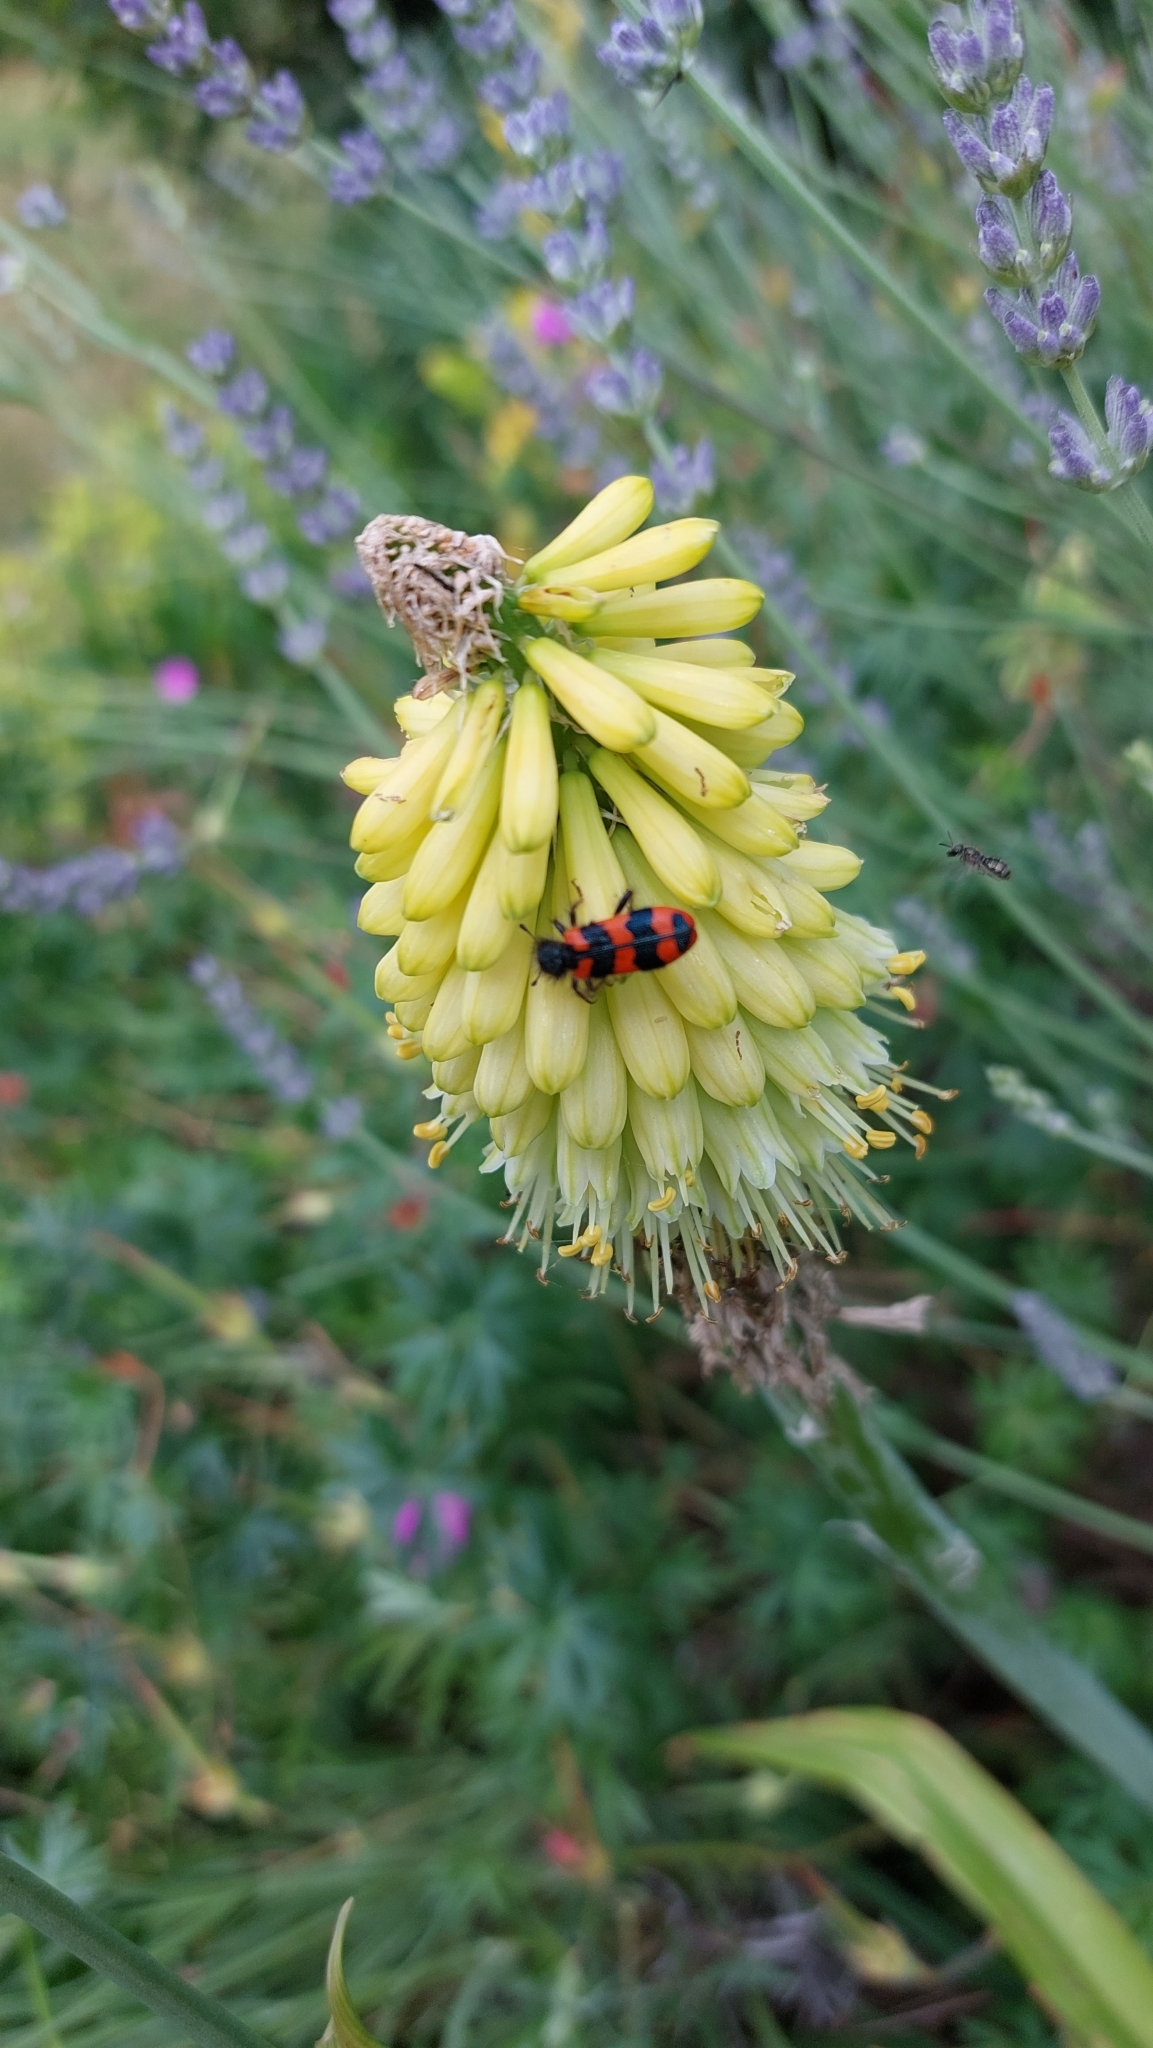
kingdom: Animalia
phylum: Arthropoda
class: Insecta
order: Coleoptera
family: Cleridae
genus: Trichodes
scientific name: Trichodes alvearius
